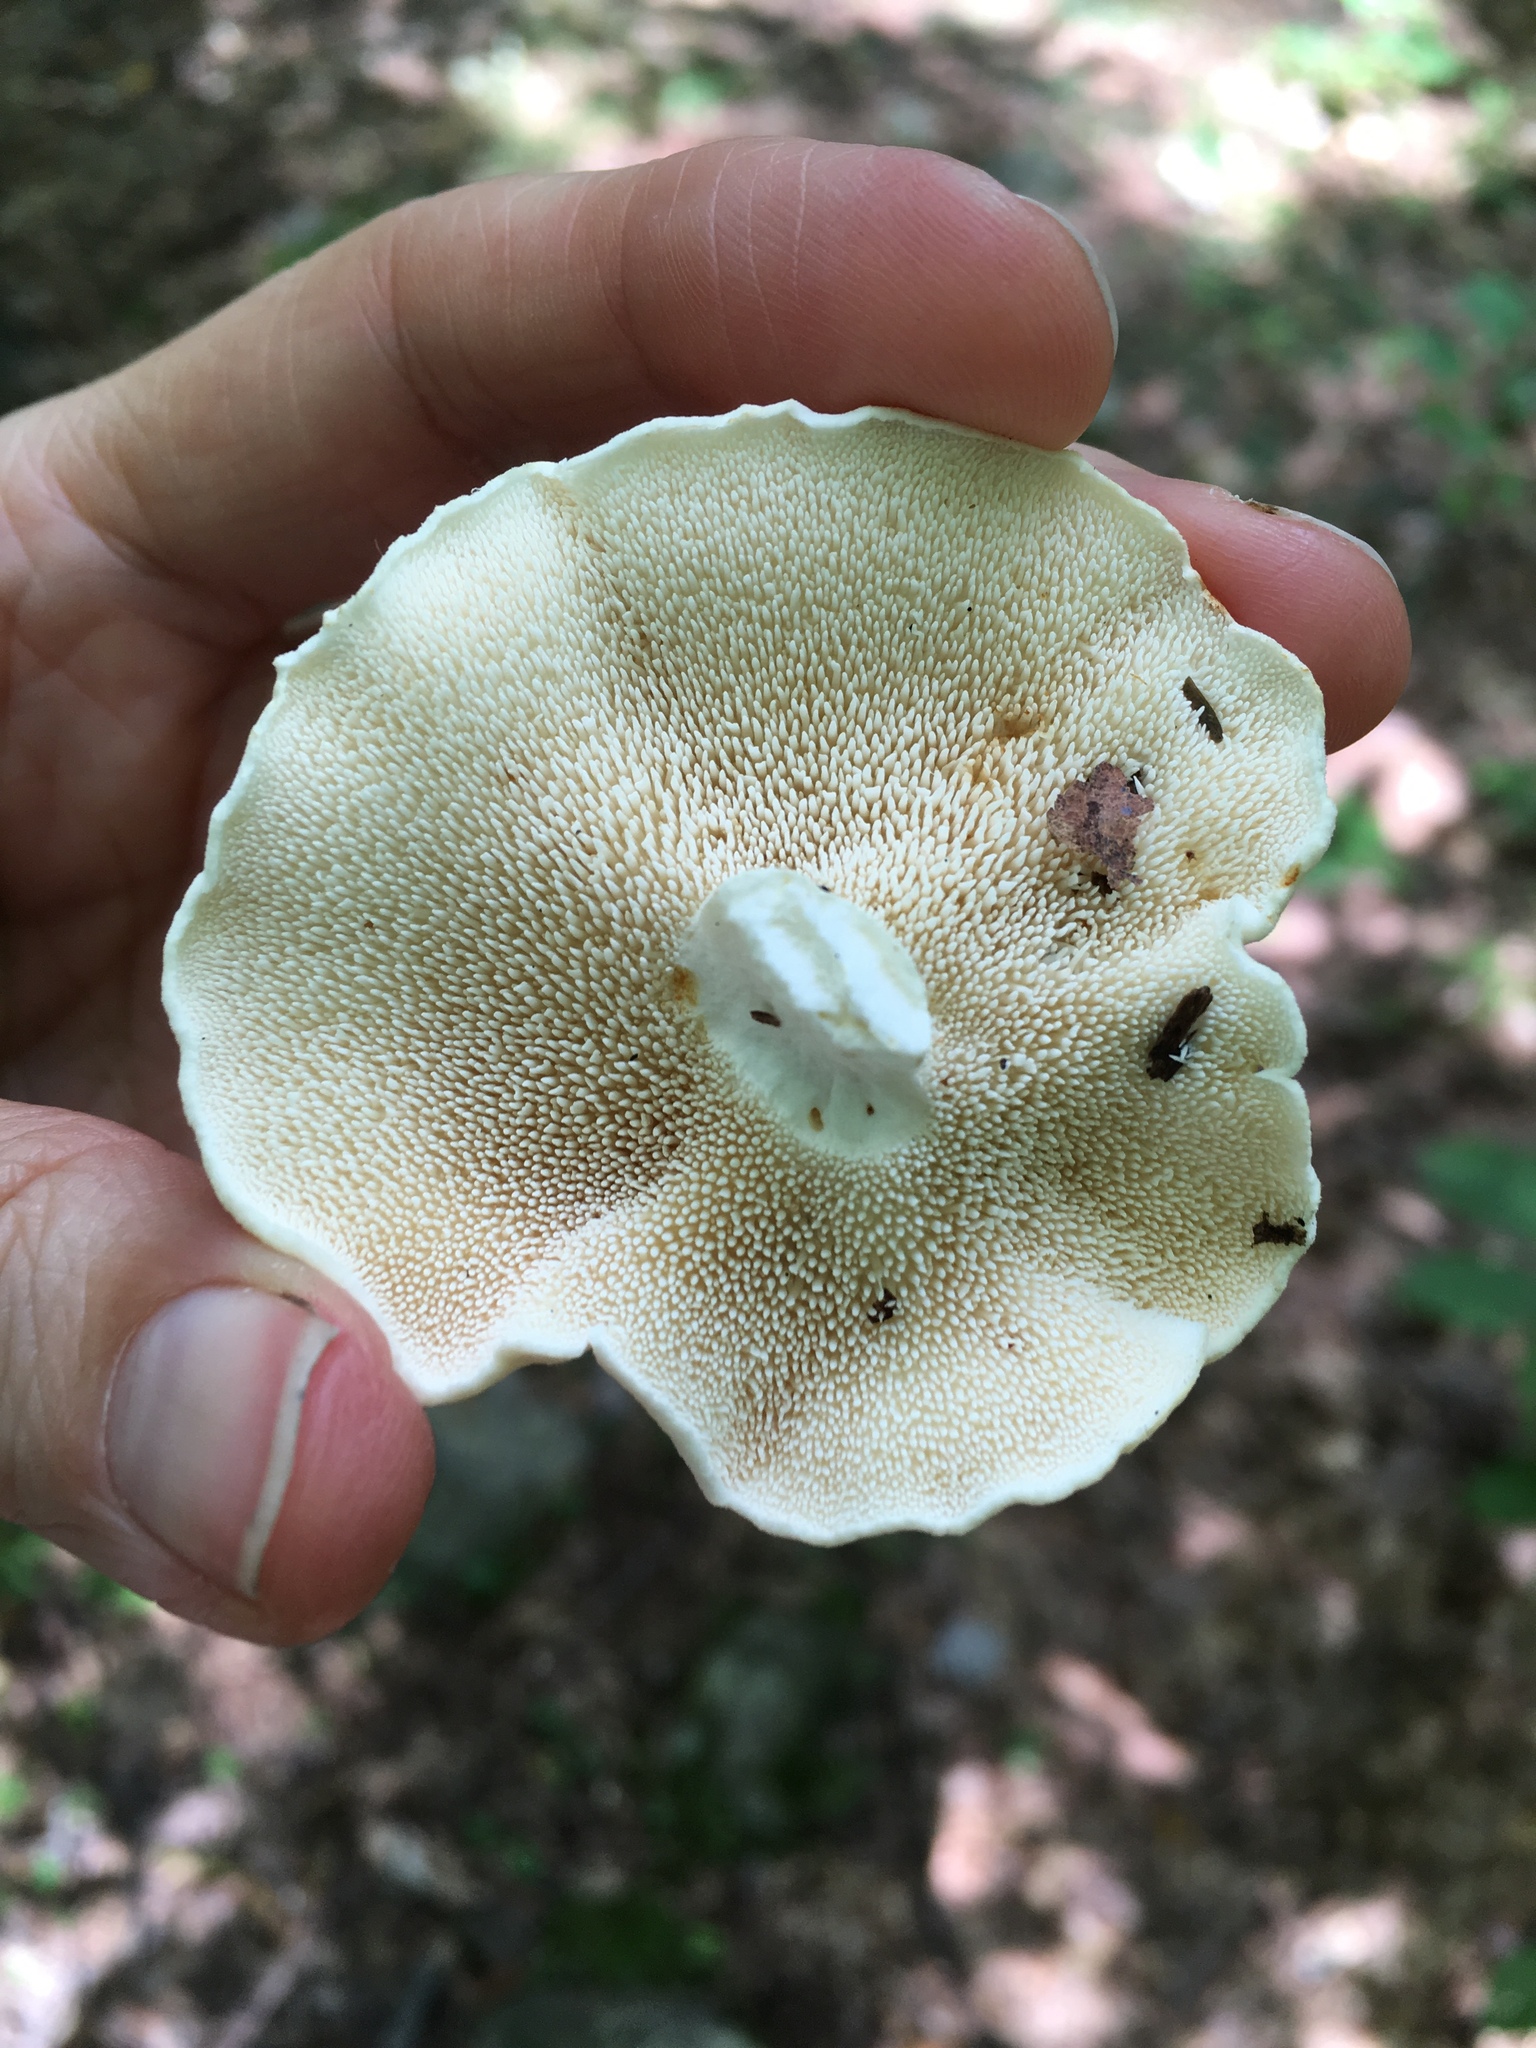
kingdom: Fungi
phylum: Basidiomycota
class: Agaricomycetes
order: Cantharellales
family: Hydnaceae
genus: Hydnum
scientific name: Hydnum albidum
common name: White hedgehog
